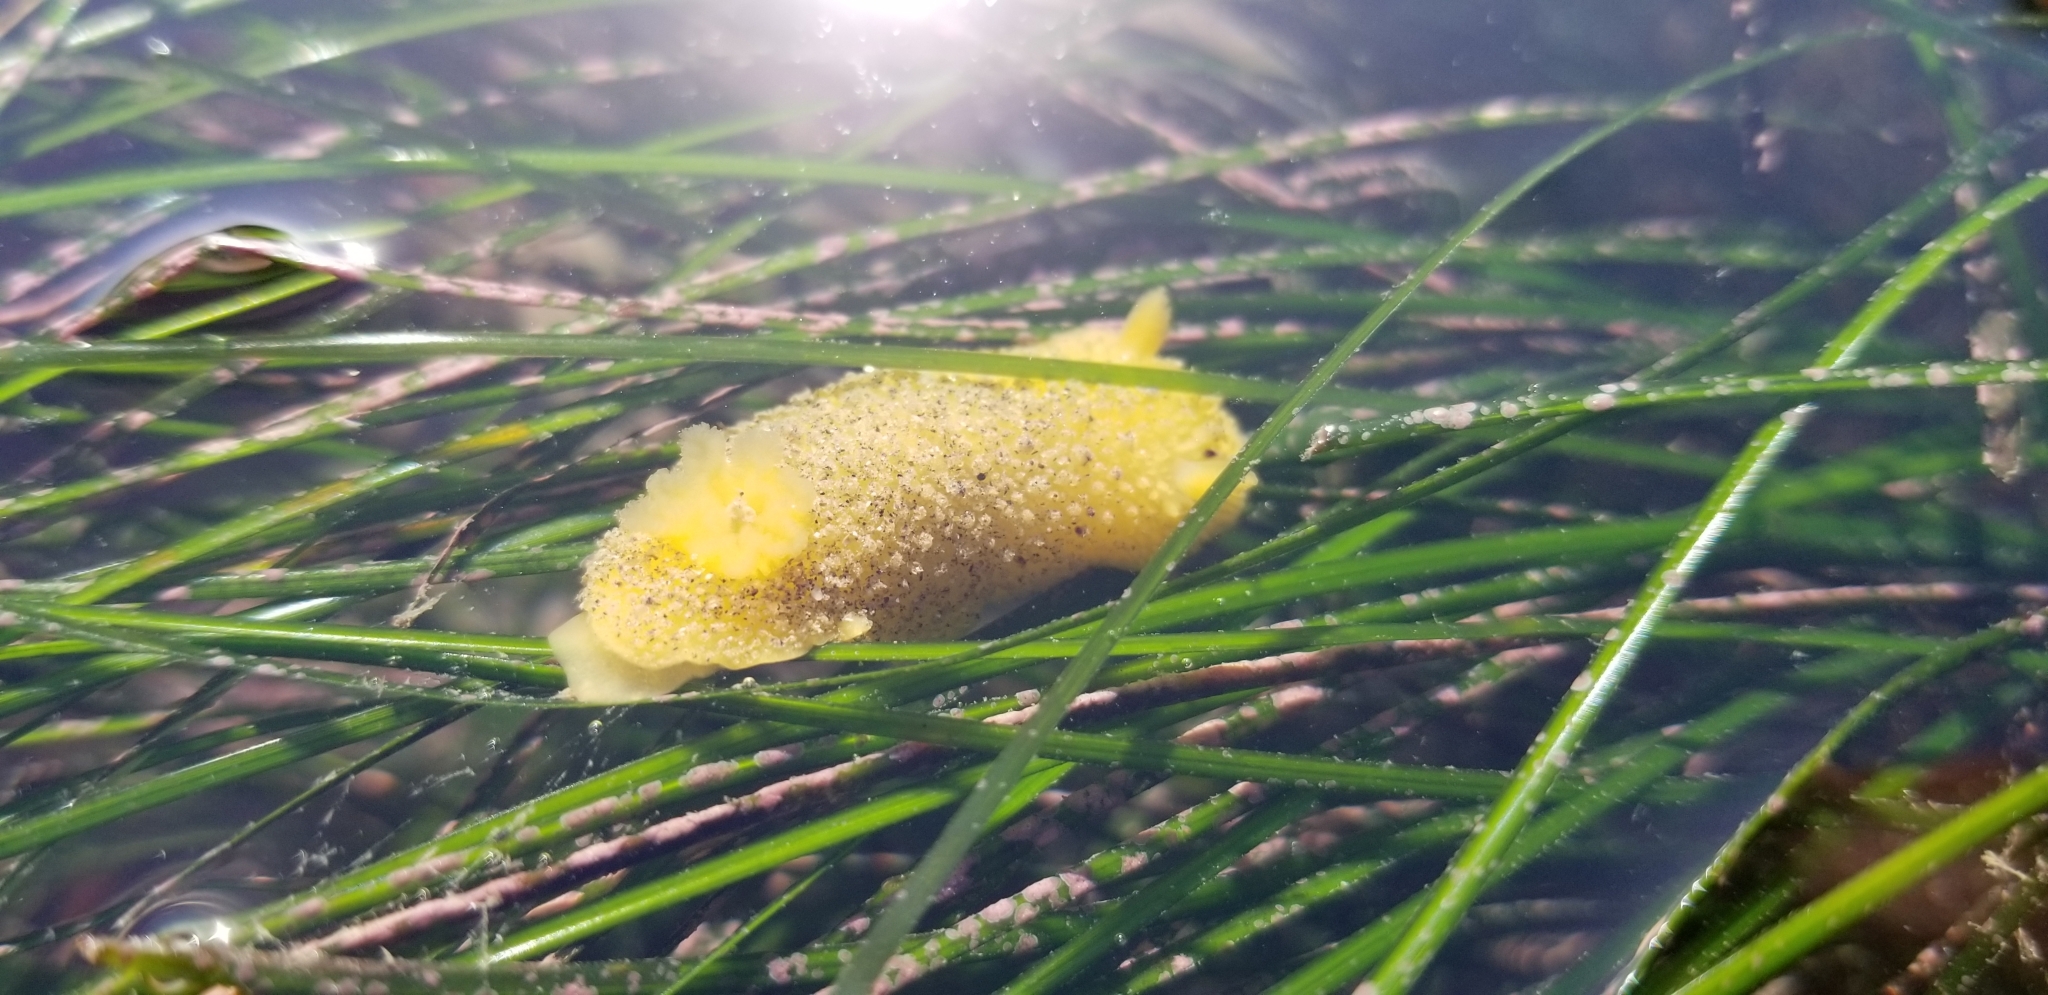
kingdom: Animalia
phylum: Mollusca
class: Gastropoda
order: Nudibranchia
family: Dorididae
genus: Doris
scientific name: Doris montereyensis
